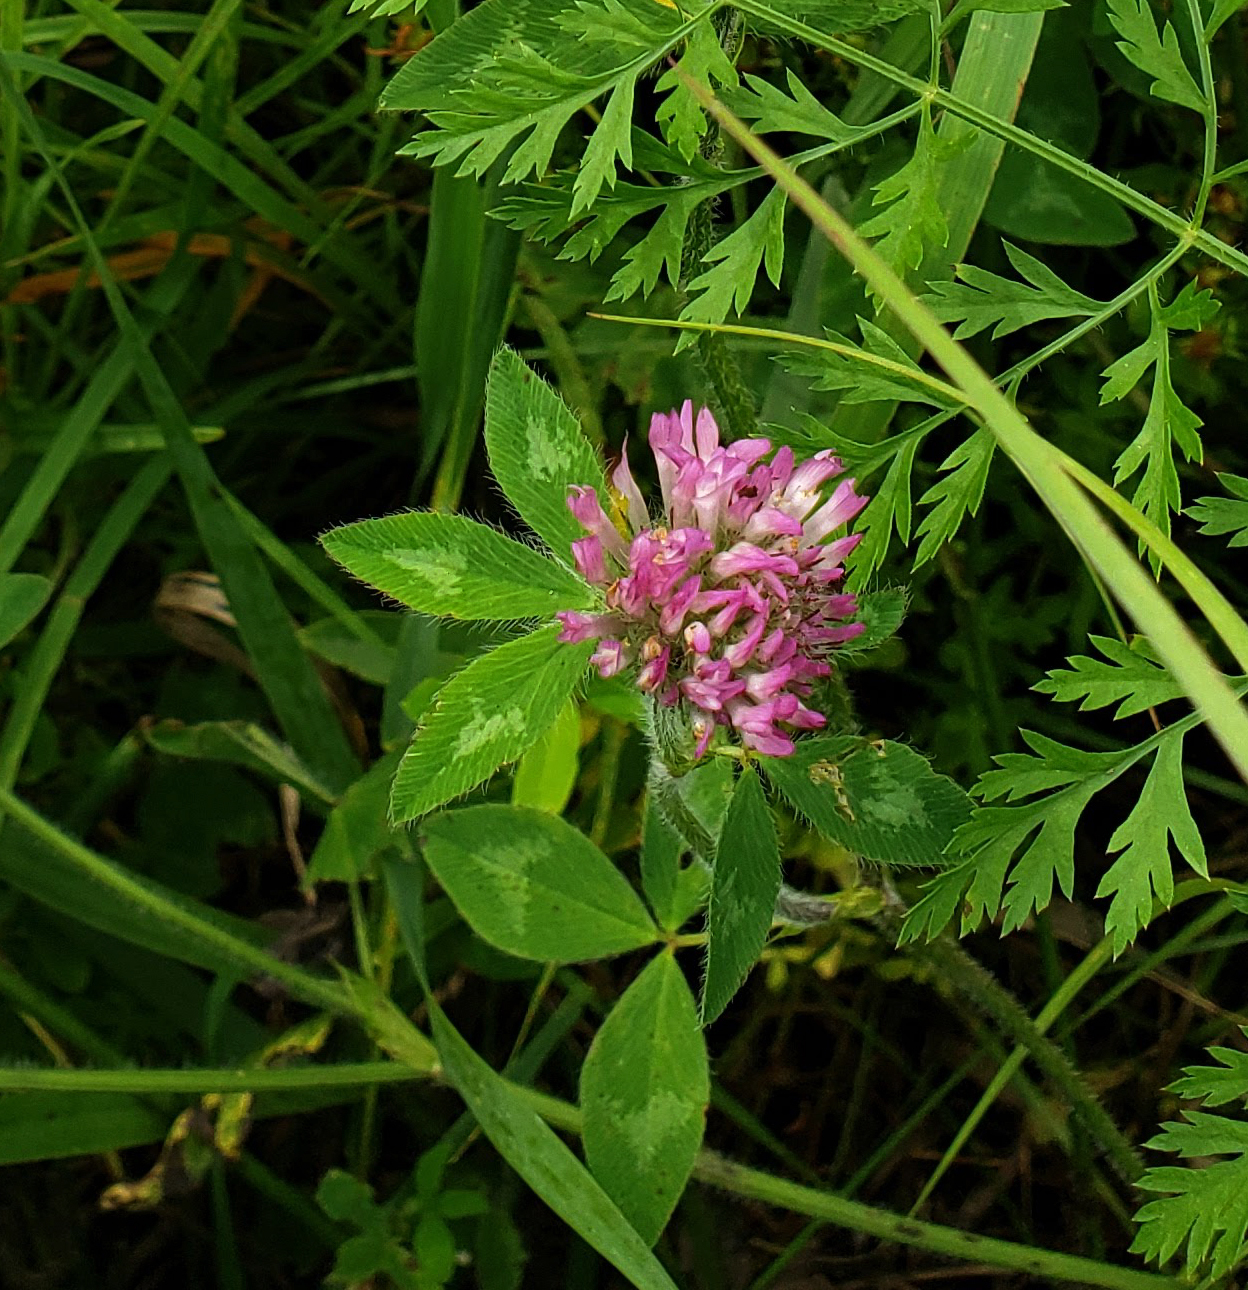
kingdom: Plantae
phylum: Tracheophyta
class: Magnoliopsida
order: Fabales
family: Fabaceae
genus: Trifolium
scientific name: Trifolium pratense
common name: Red clover
